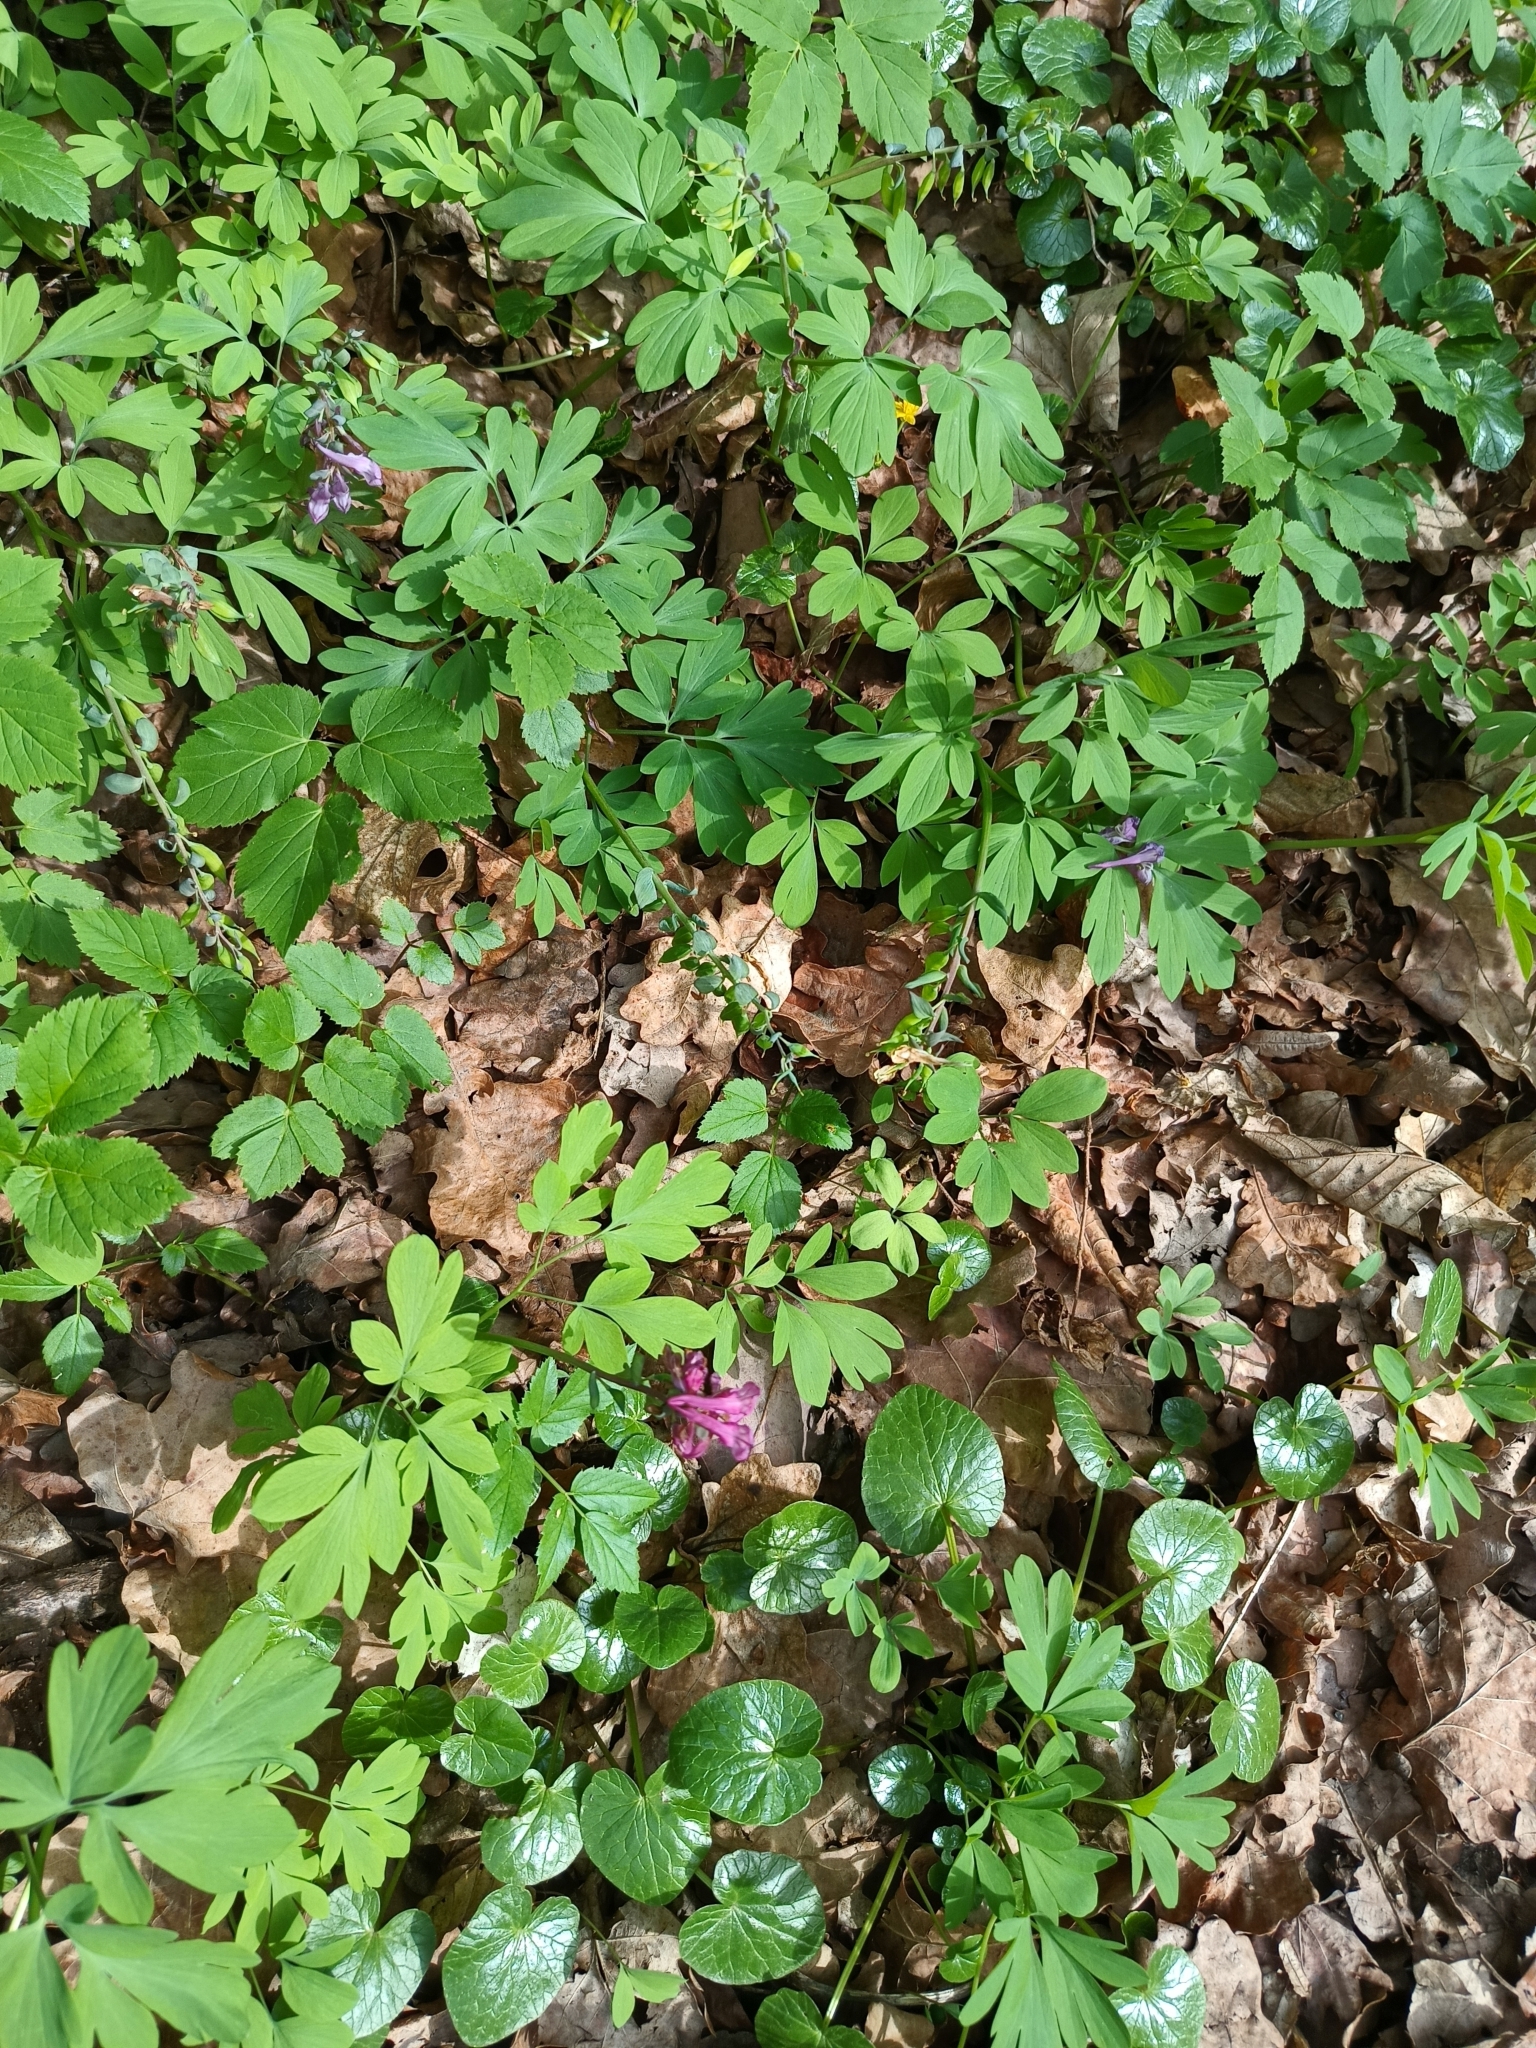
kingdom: Plantae
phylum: Tracheophyta
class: Magnoliopsida
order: Ranunculales
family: Papaveraceae
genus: Corydalis
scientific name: Corydalis cava
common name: Hollowroot
